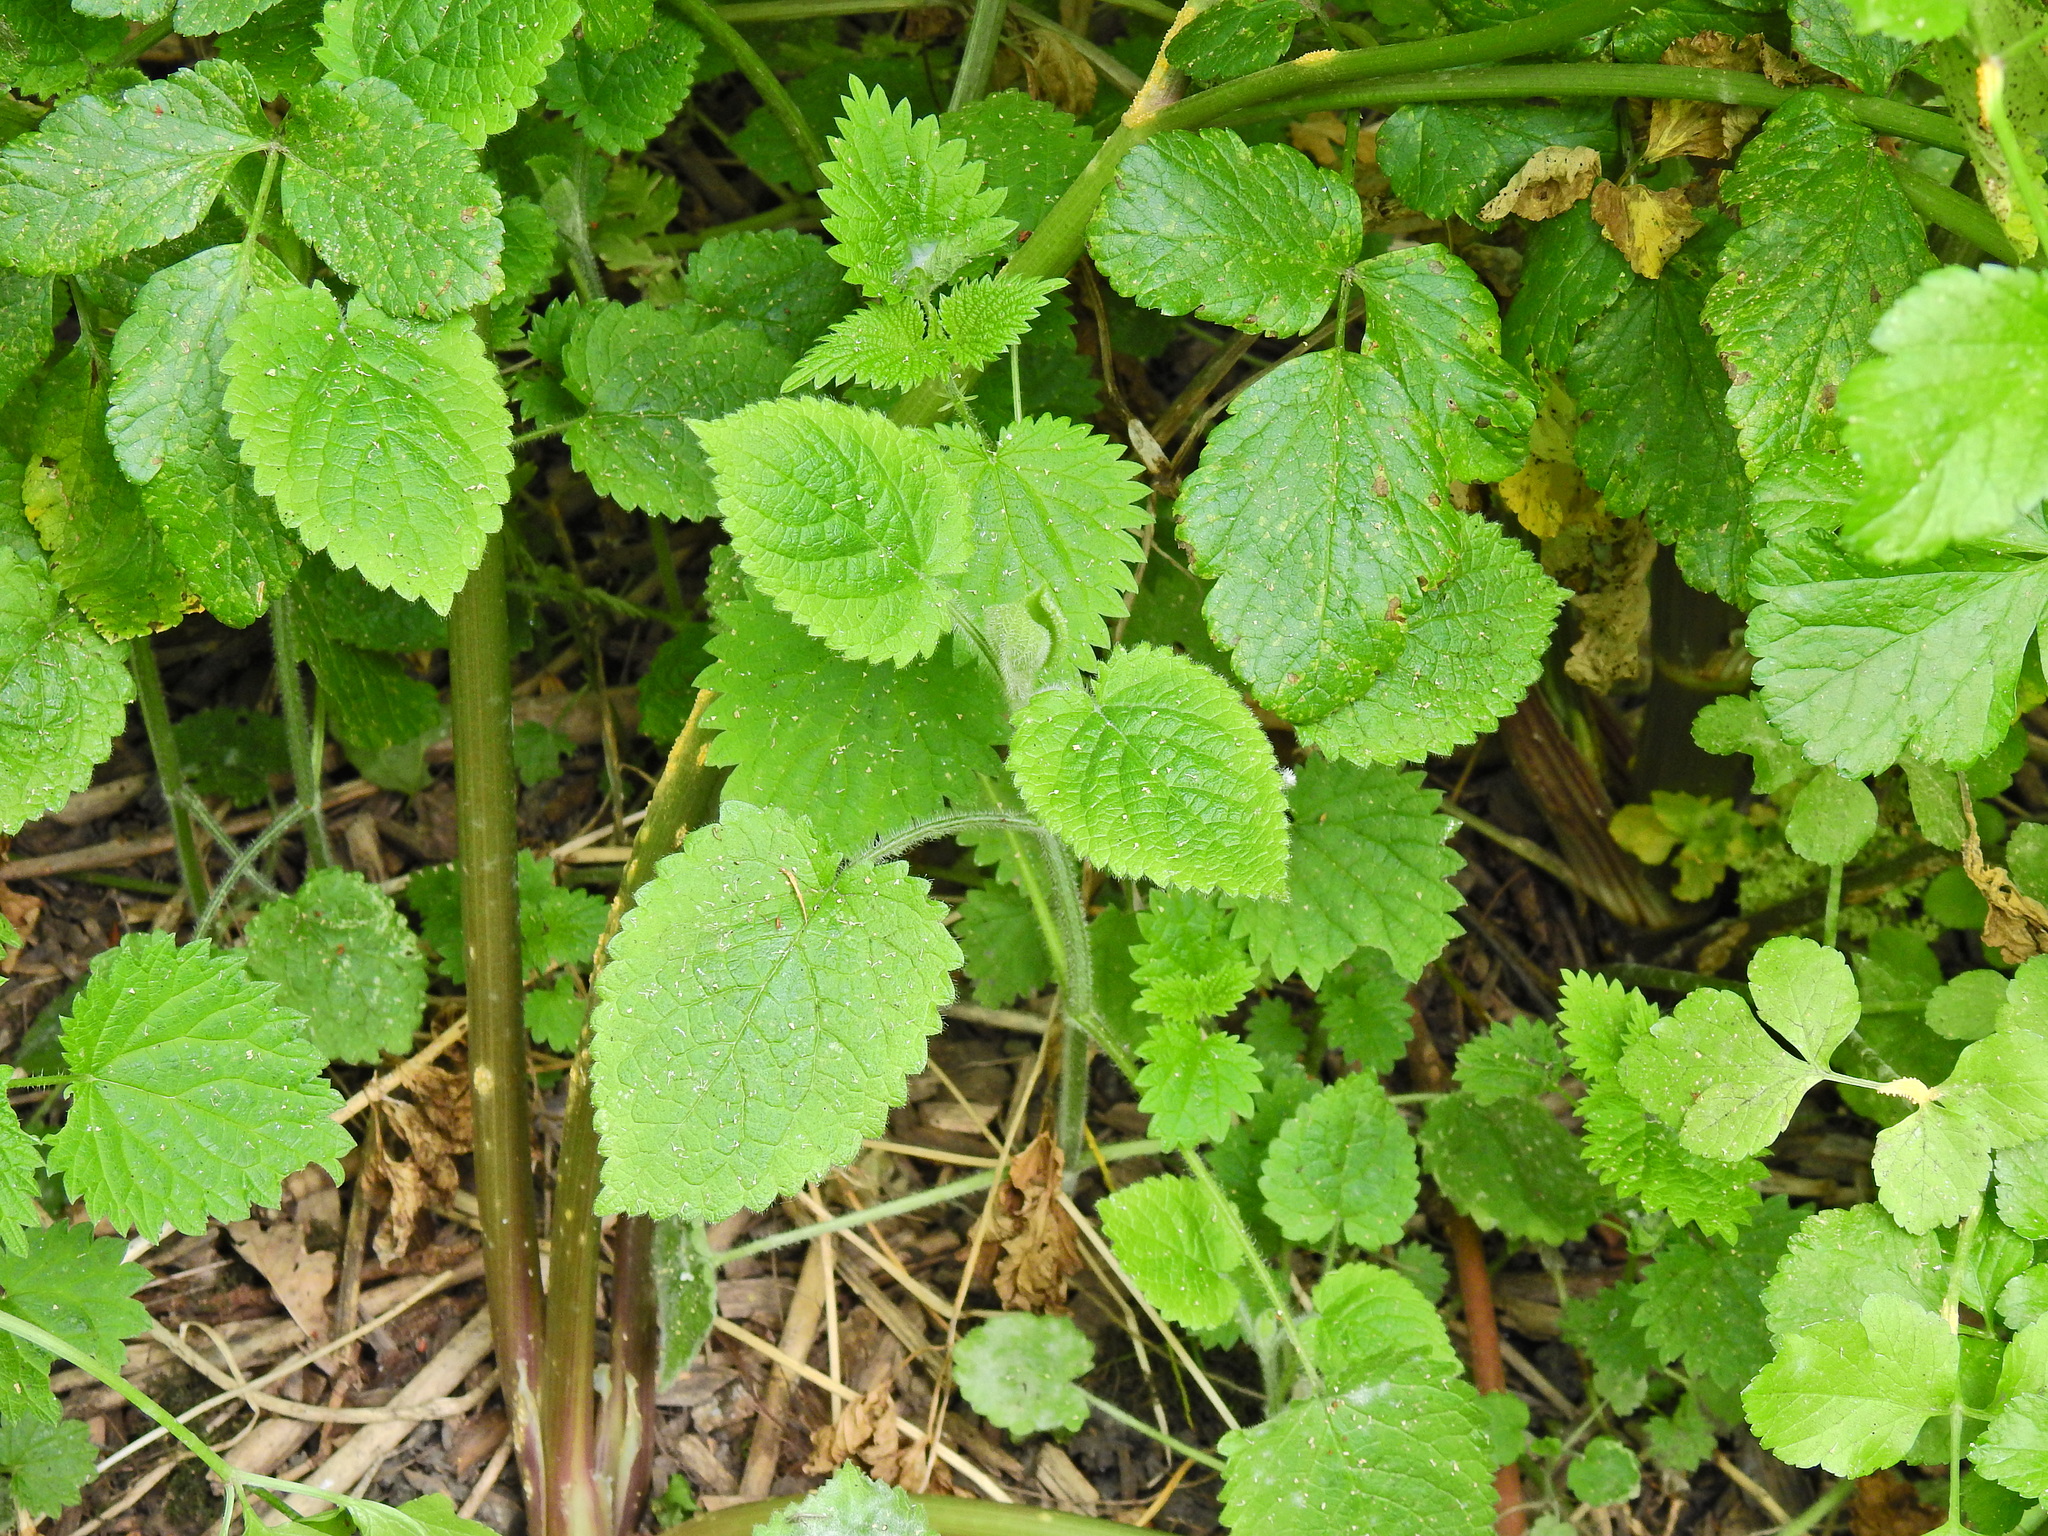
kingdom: Plantae
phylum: Tracheophyta
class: Magnoliopsida
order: Lamiales
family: Lamiaceae
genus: Stachys
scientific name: Stachys sylvatica
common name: Hedge woundwort
